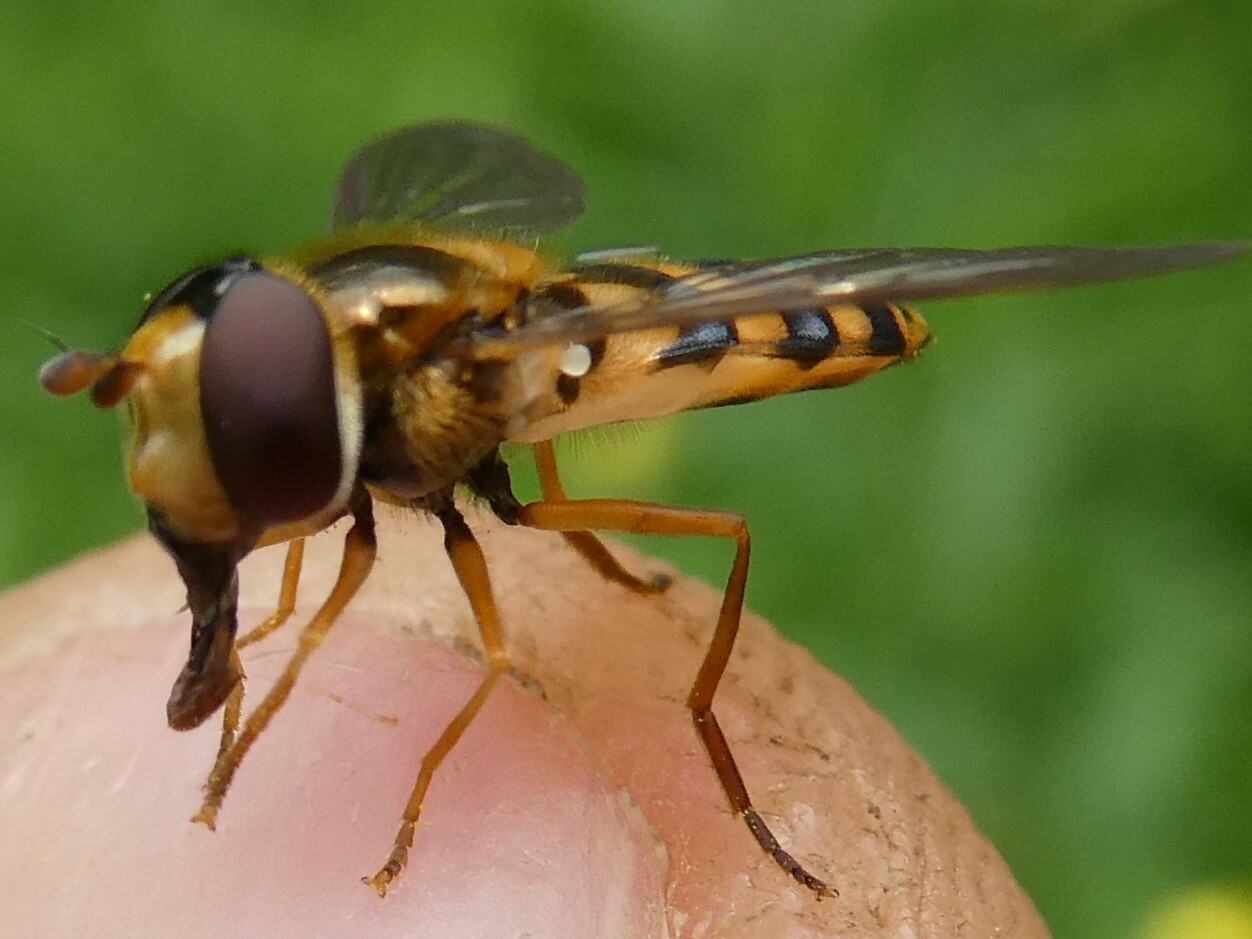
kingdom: Animalia
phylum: Arthropoda
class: Insecta
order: Diptera
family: Syrphidae
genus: Eupeodes
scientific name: Eupeodes latifasciatus
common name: Variable aphideater
